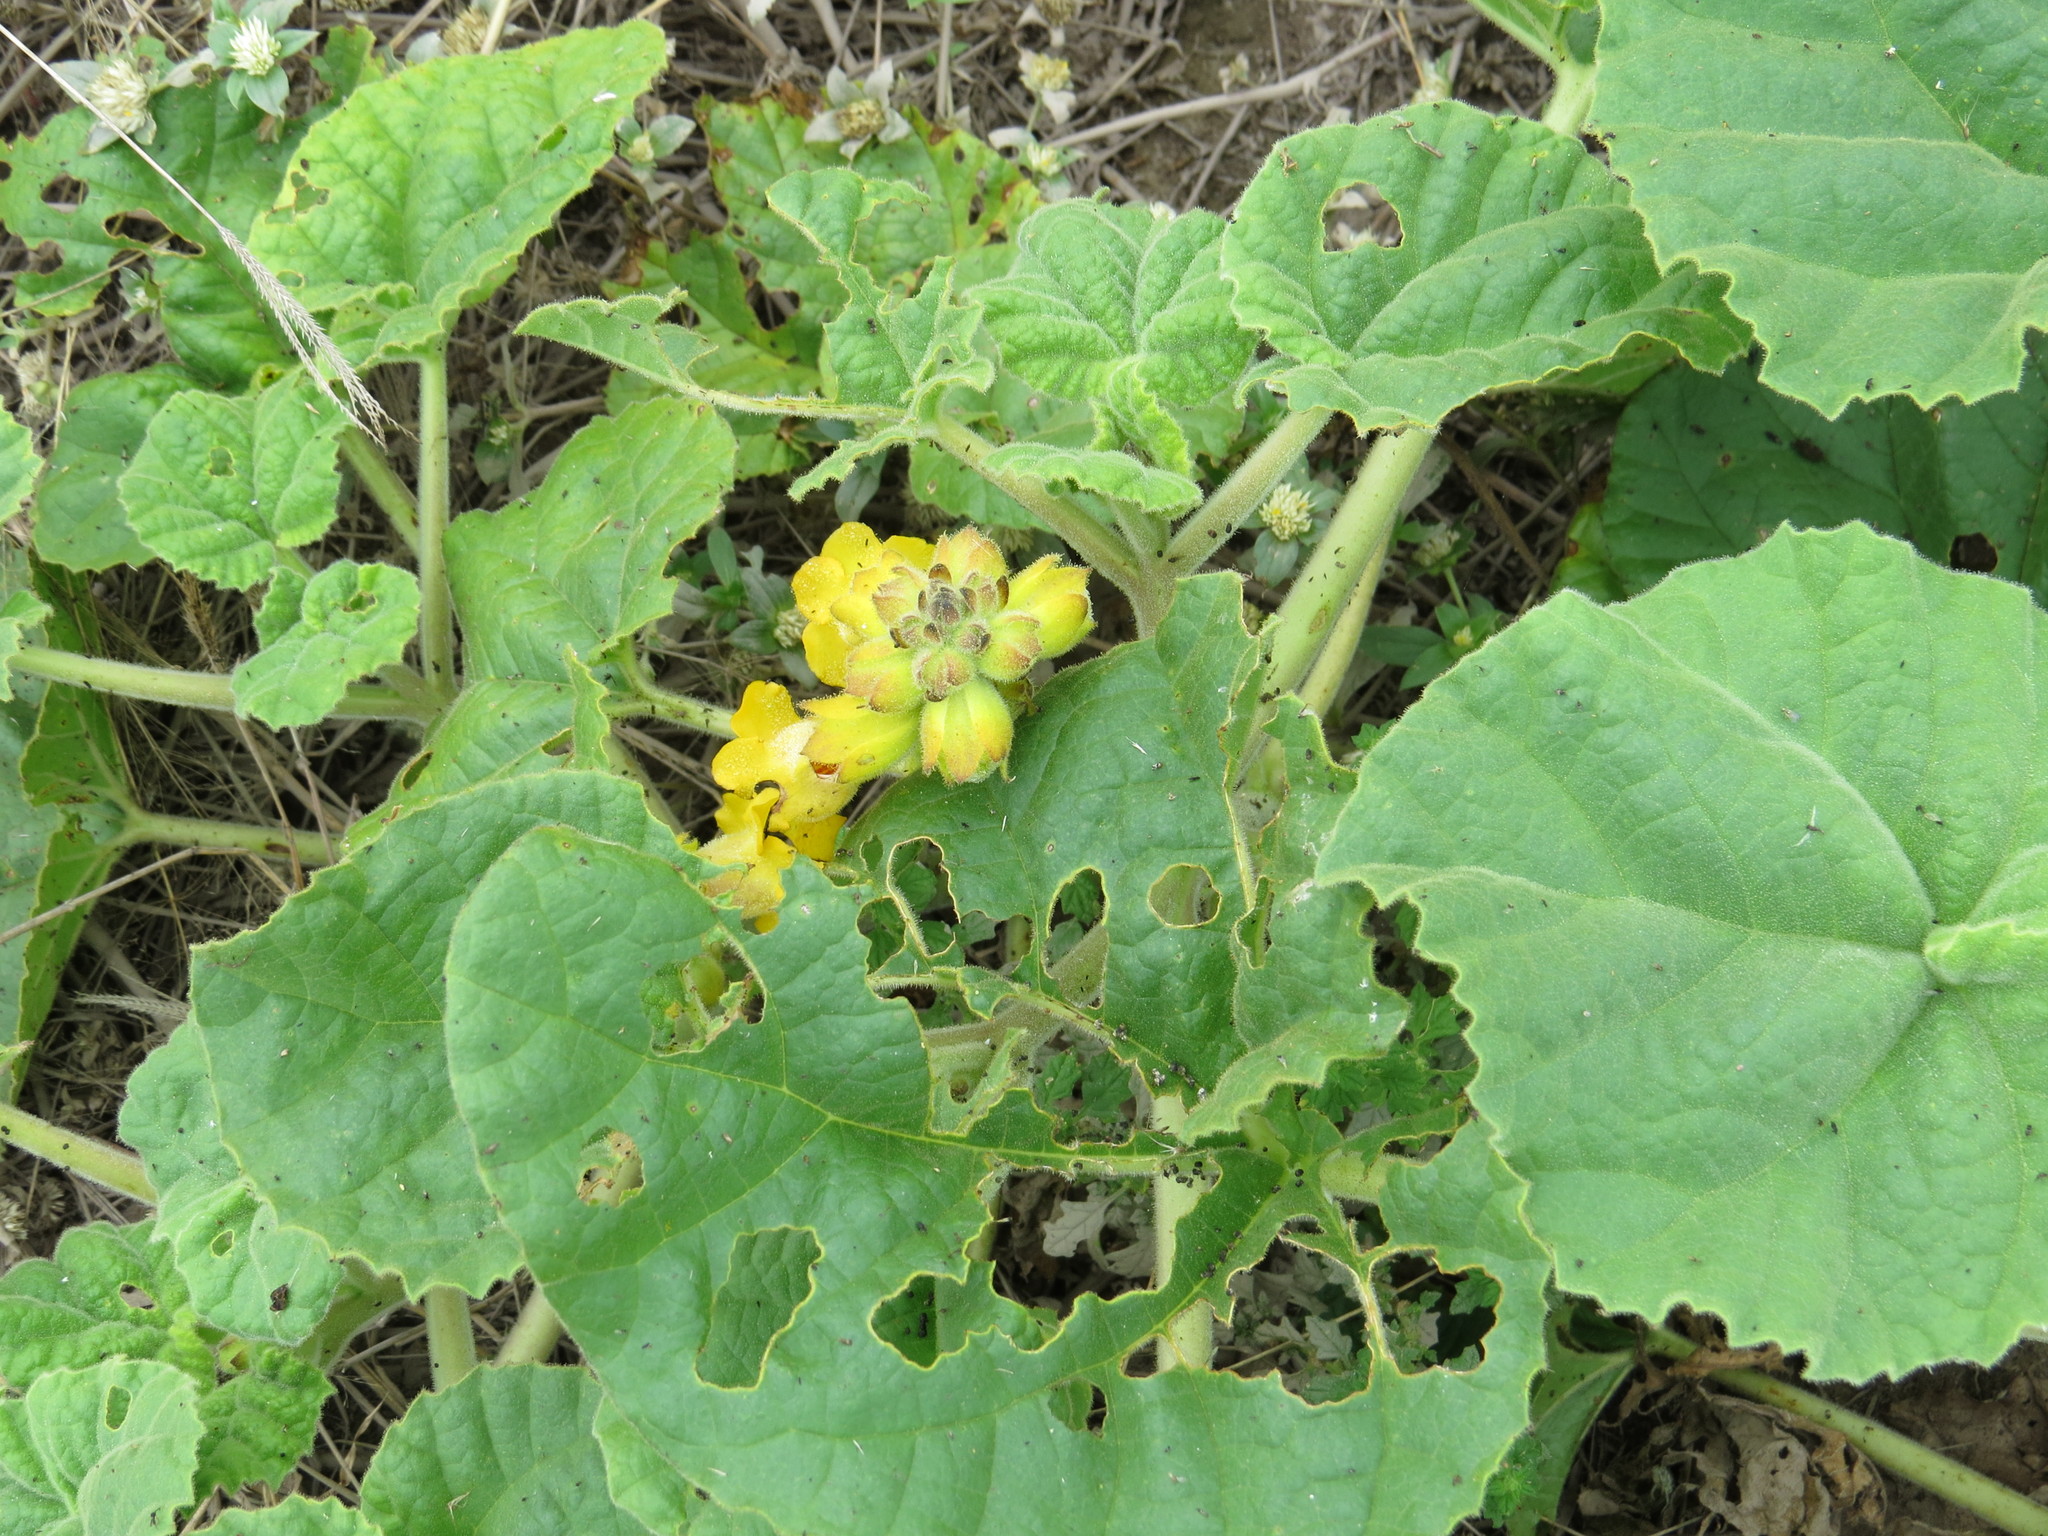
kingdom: Plantae
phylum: Tracheophyta
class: Magnoliopsida
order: Lamiales
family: Martyniaceae
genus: Ibicella
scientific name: Ibicella lutea
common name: Yellow unicorn-plant
